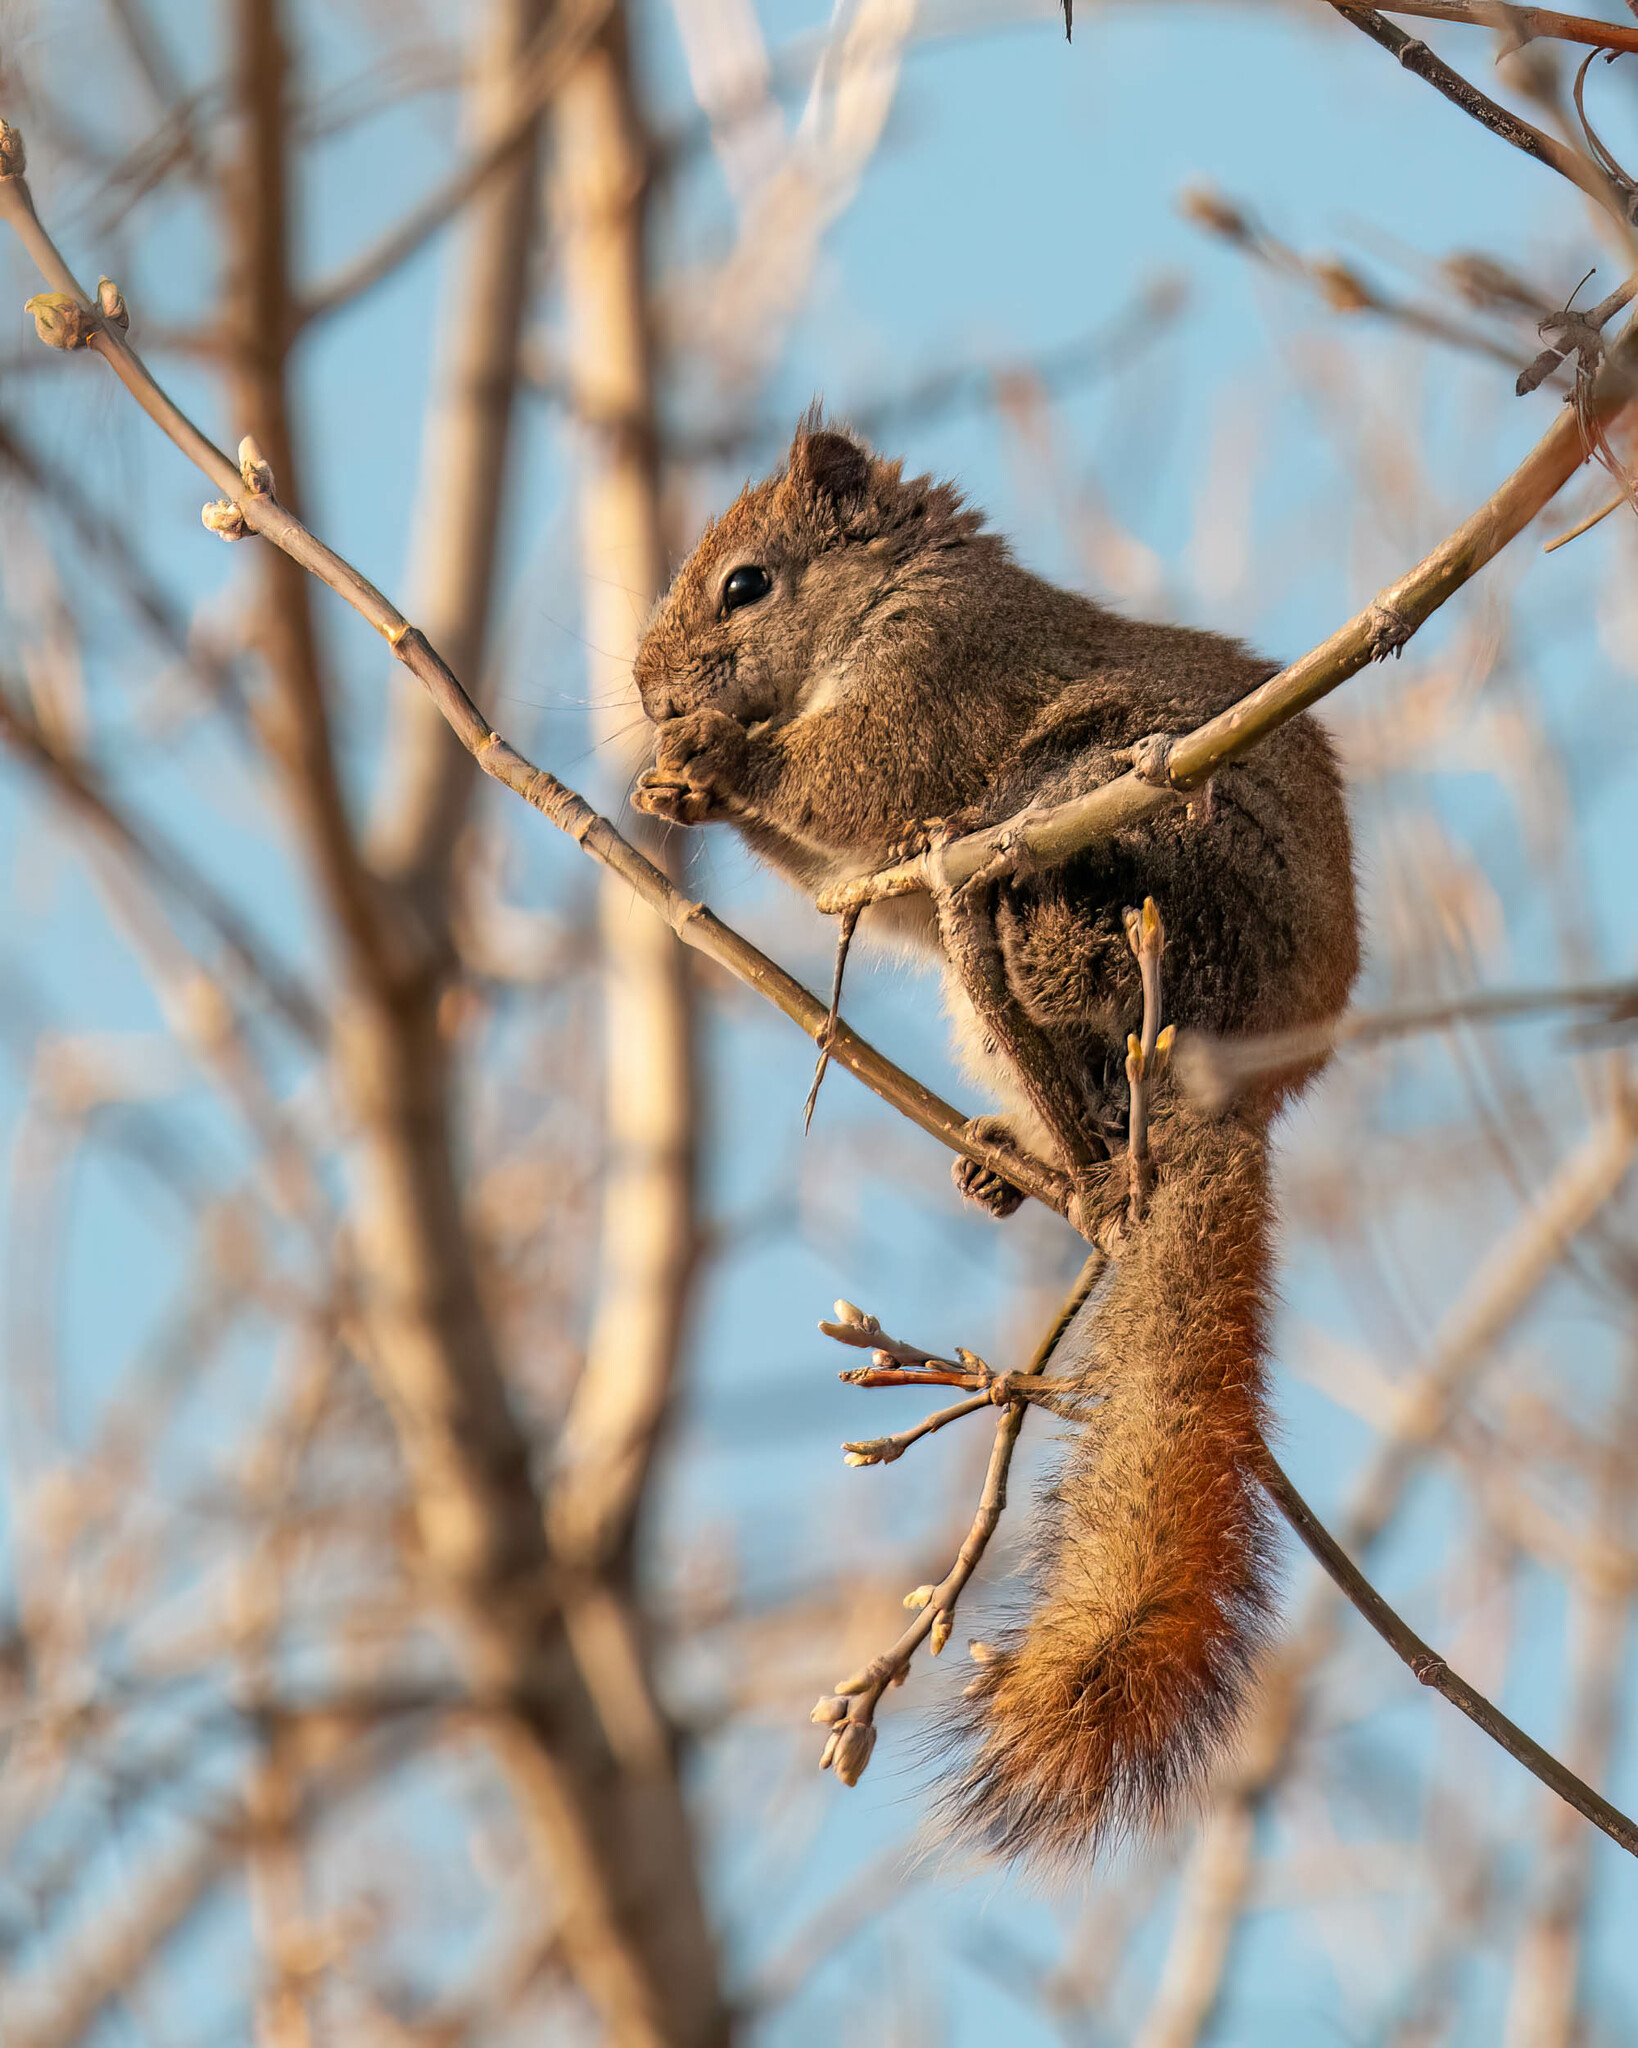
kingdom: Animalia
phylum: Chordata
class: Mammalia
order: Rodentia
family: Sciuridae
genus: Tamiasciurus
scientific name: Tamiasciurus hudsonicus
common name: Red squirrel
